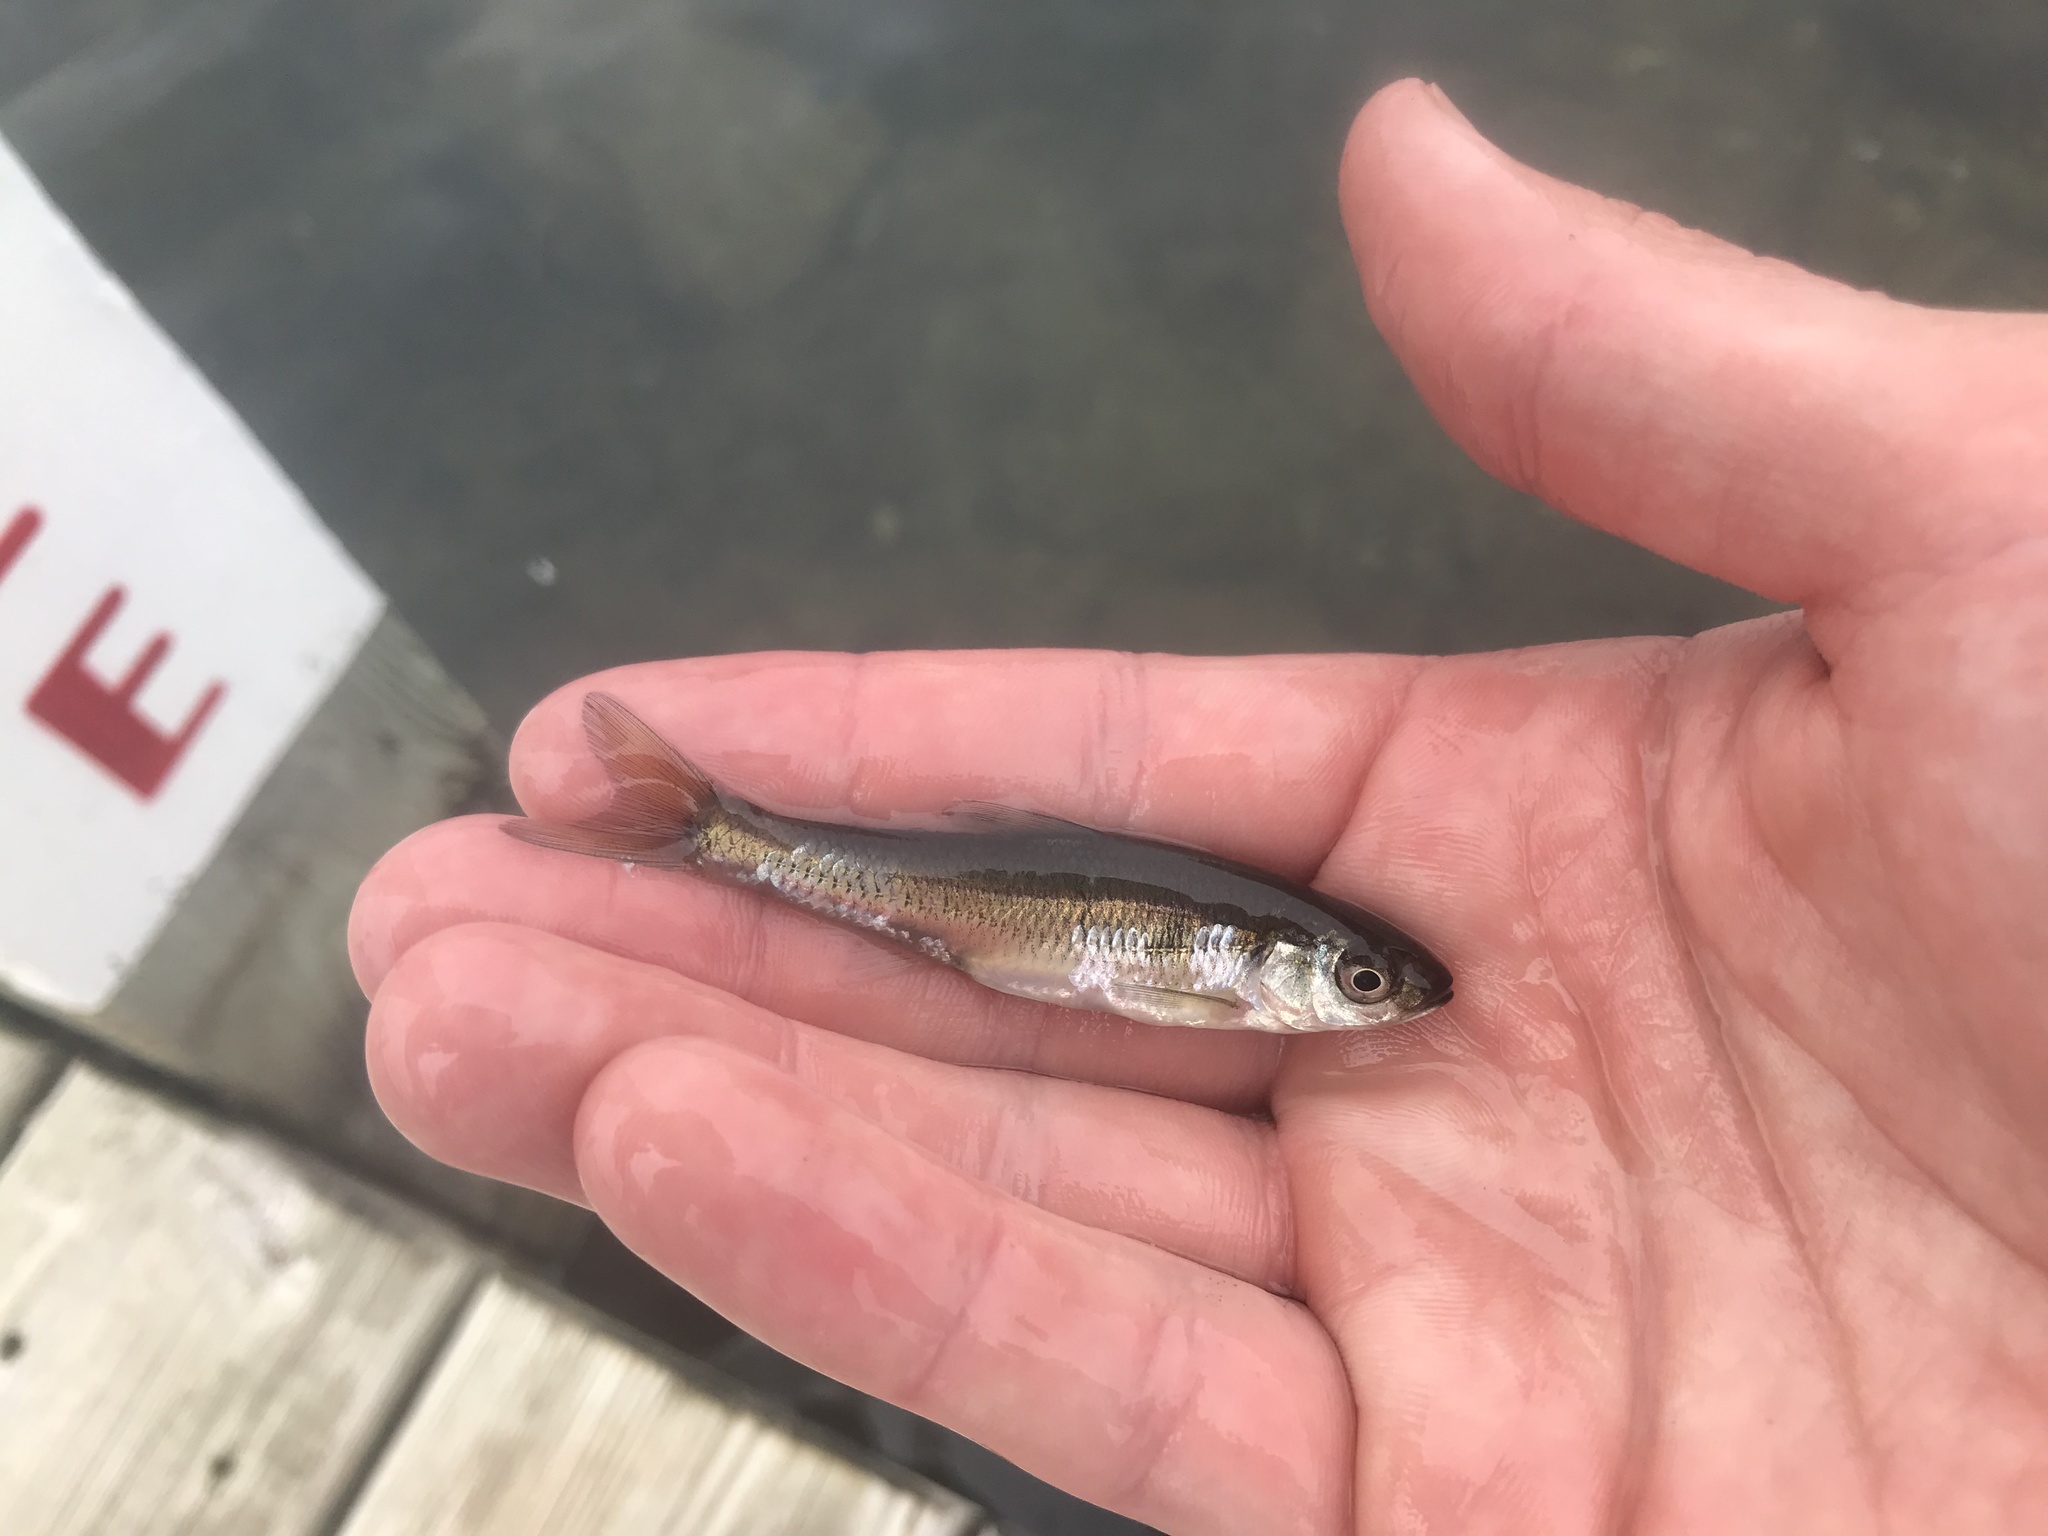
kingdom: Animalia
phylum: Chordata
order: Cypriniformes
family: Cyprinidae
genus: Luxilus
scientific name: Luxilus cornutus
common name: Common shiner
